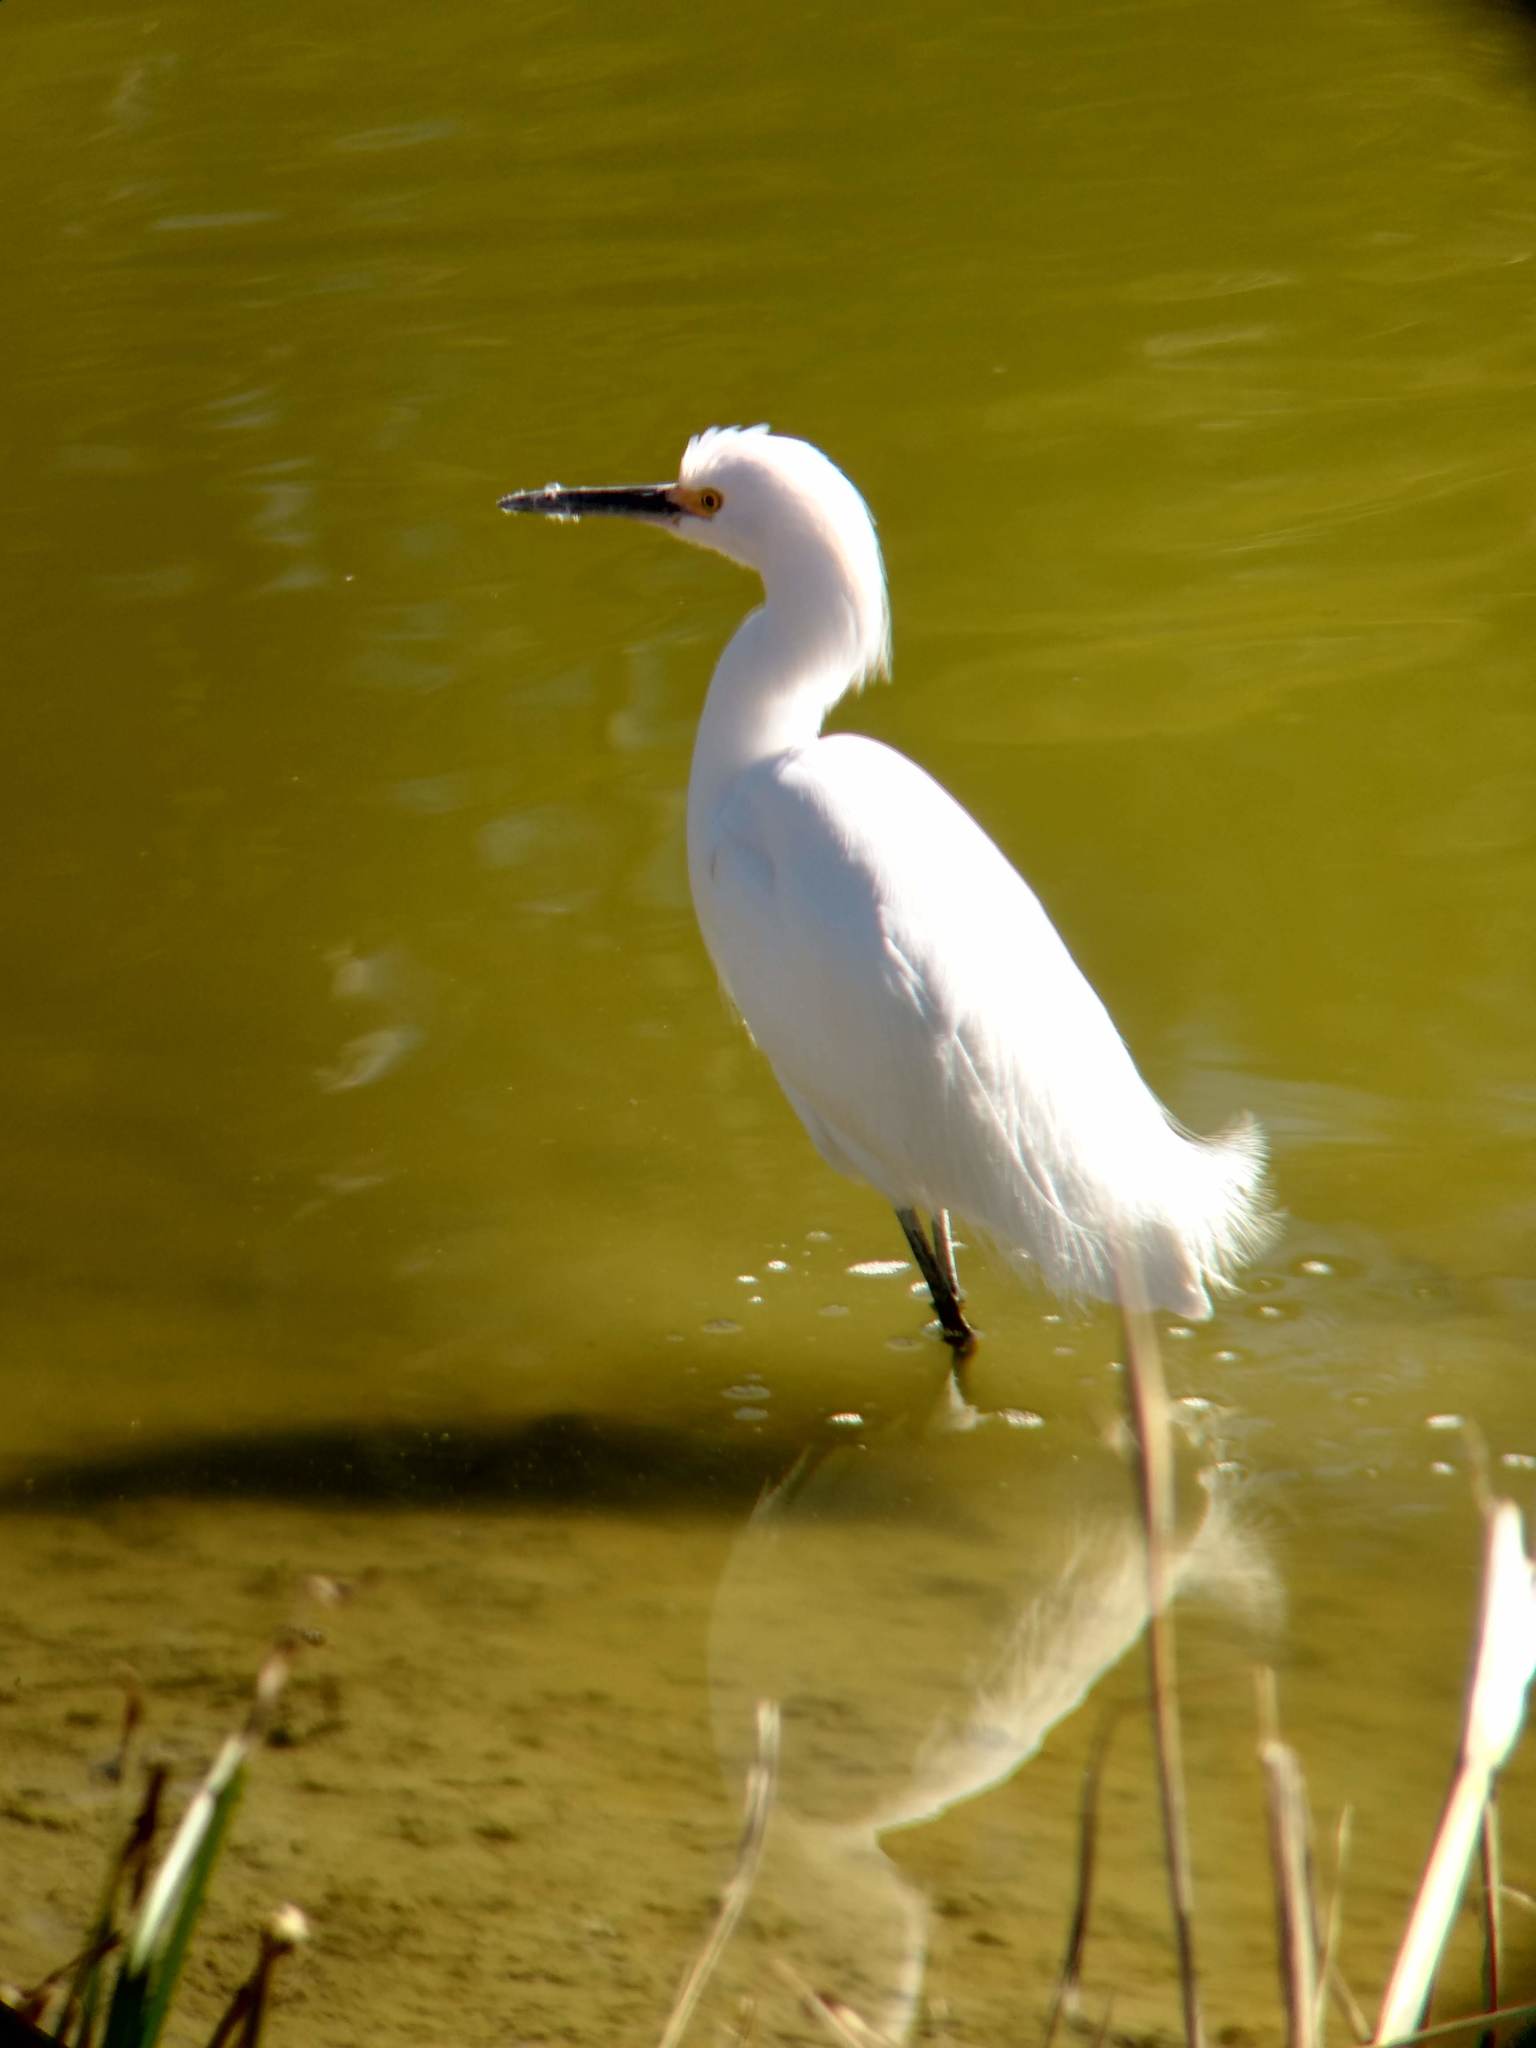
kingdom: Animalia
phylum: Chordata
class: Aves
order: Pelecaniformes
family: Ardeidae
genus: Egretta
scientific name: Egretta thula
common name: Snowy egret
